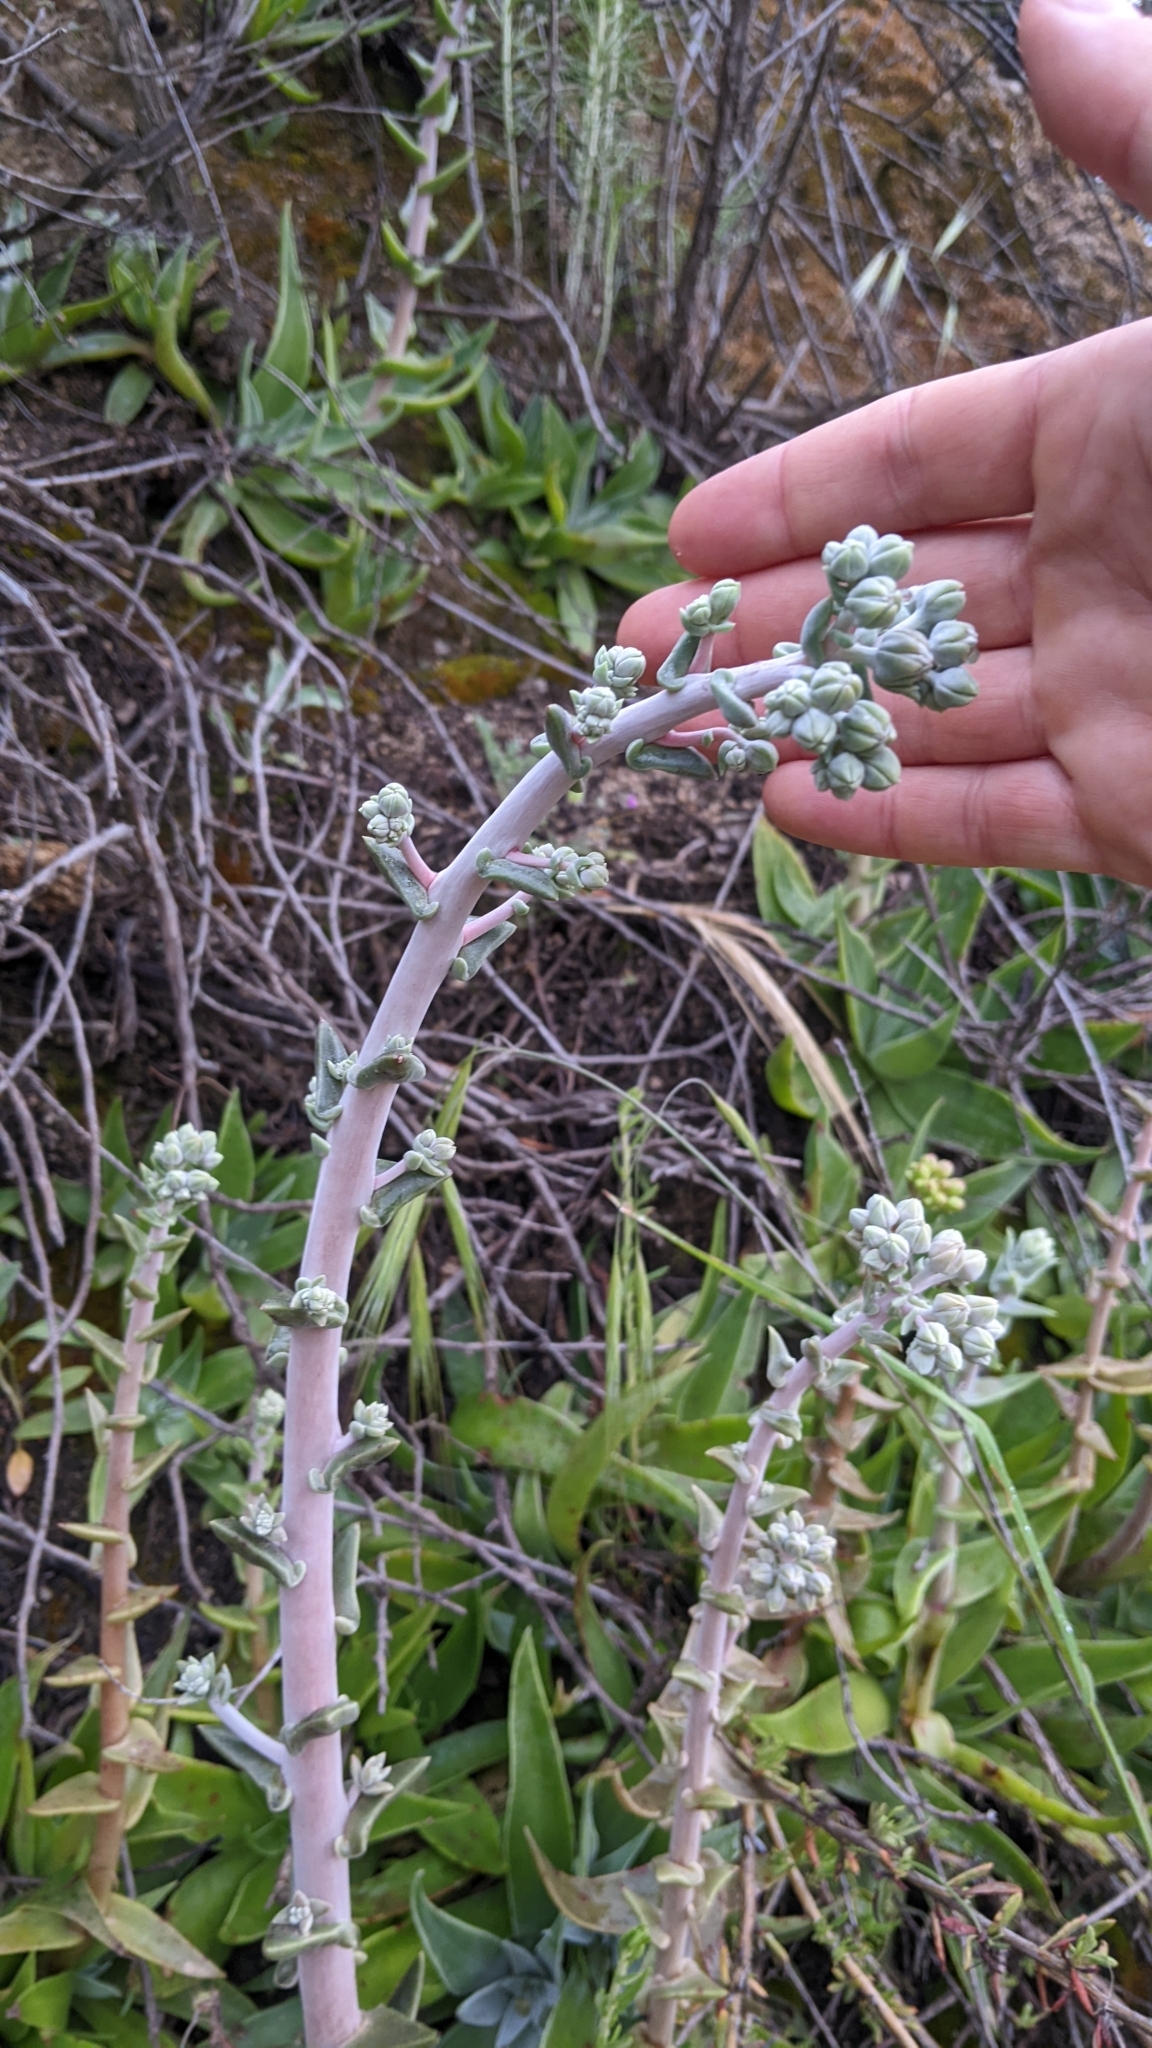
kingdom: Plantae
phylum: Tracheophyta
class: Magnoliopsida
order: Saxifragales
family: Crassulaceae
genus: Dudleya
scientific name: Dudleya lanceolata
